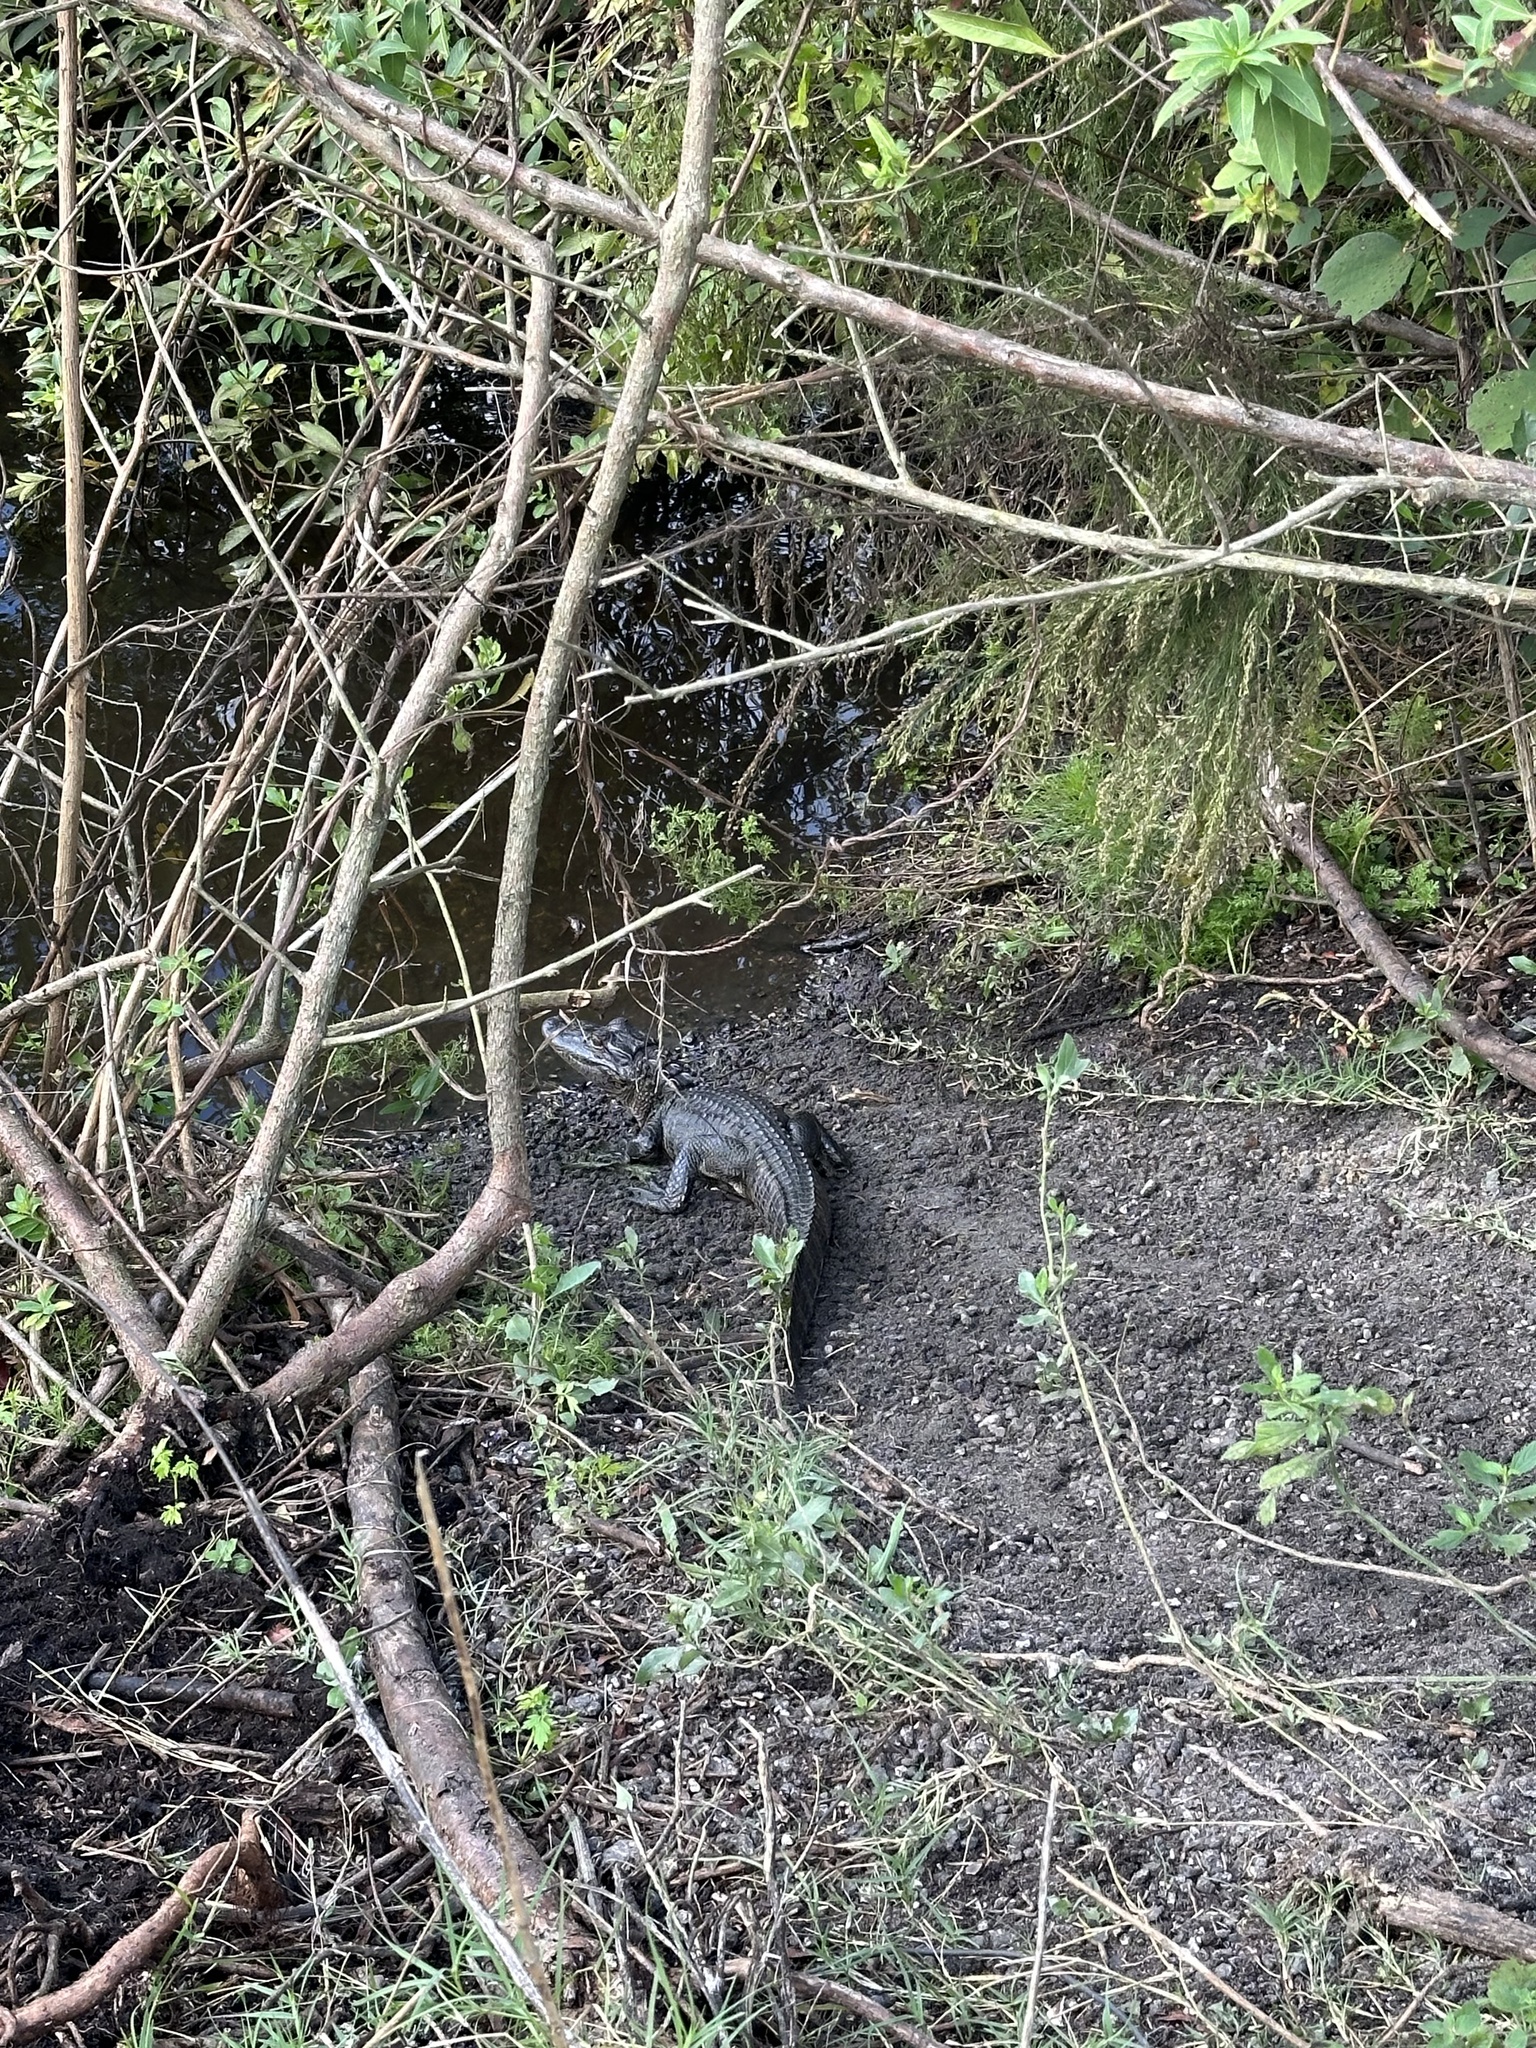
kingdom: Animalia
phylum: Chordata
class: Crocodylia
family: Alligatoridae
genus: Alligator
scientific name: Alligator mississippiensis
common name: American alligator
